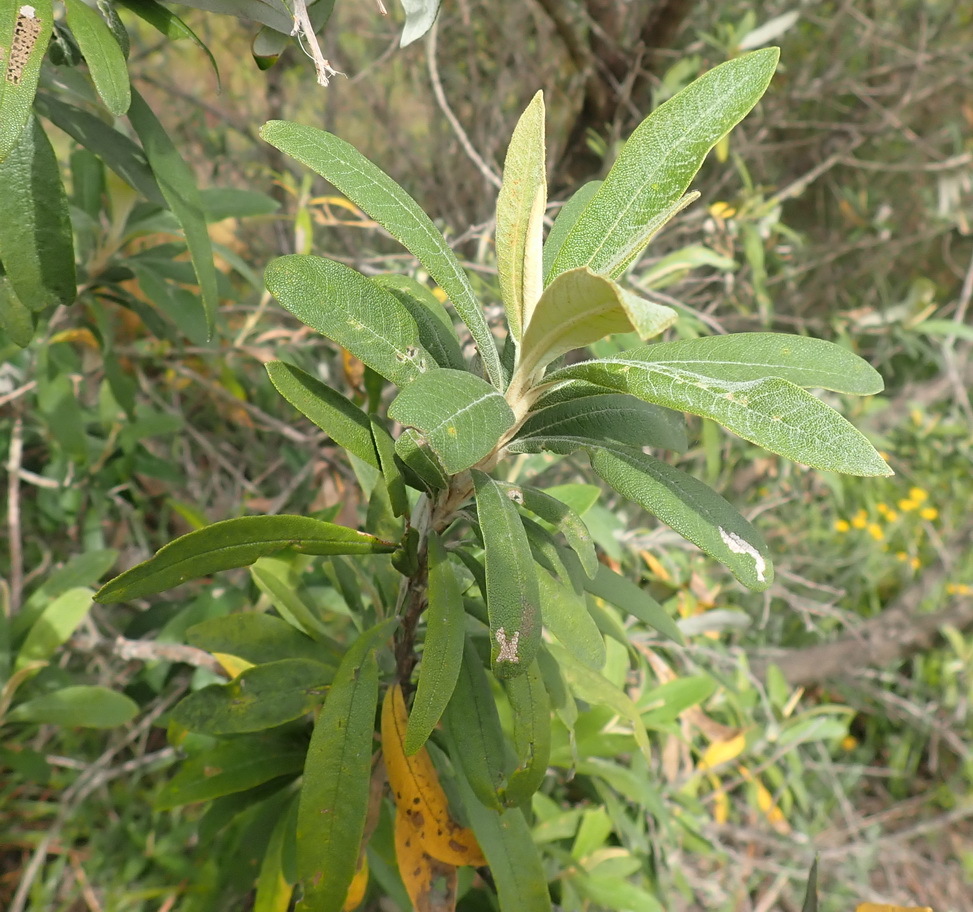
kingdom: Plantae
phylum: Tracheophyta
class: Magnoliopsida
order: Asterales
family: Asteraceae
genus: Tarchonanthus
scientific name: Tarchonanthus littoralis
